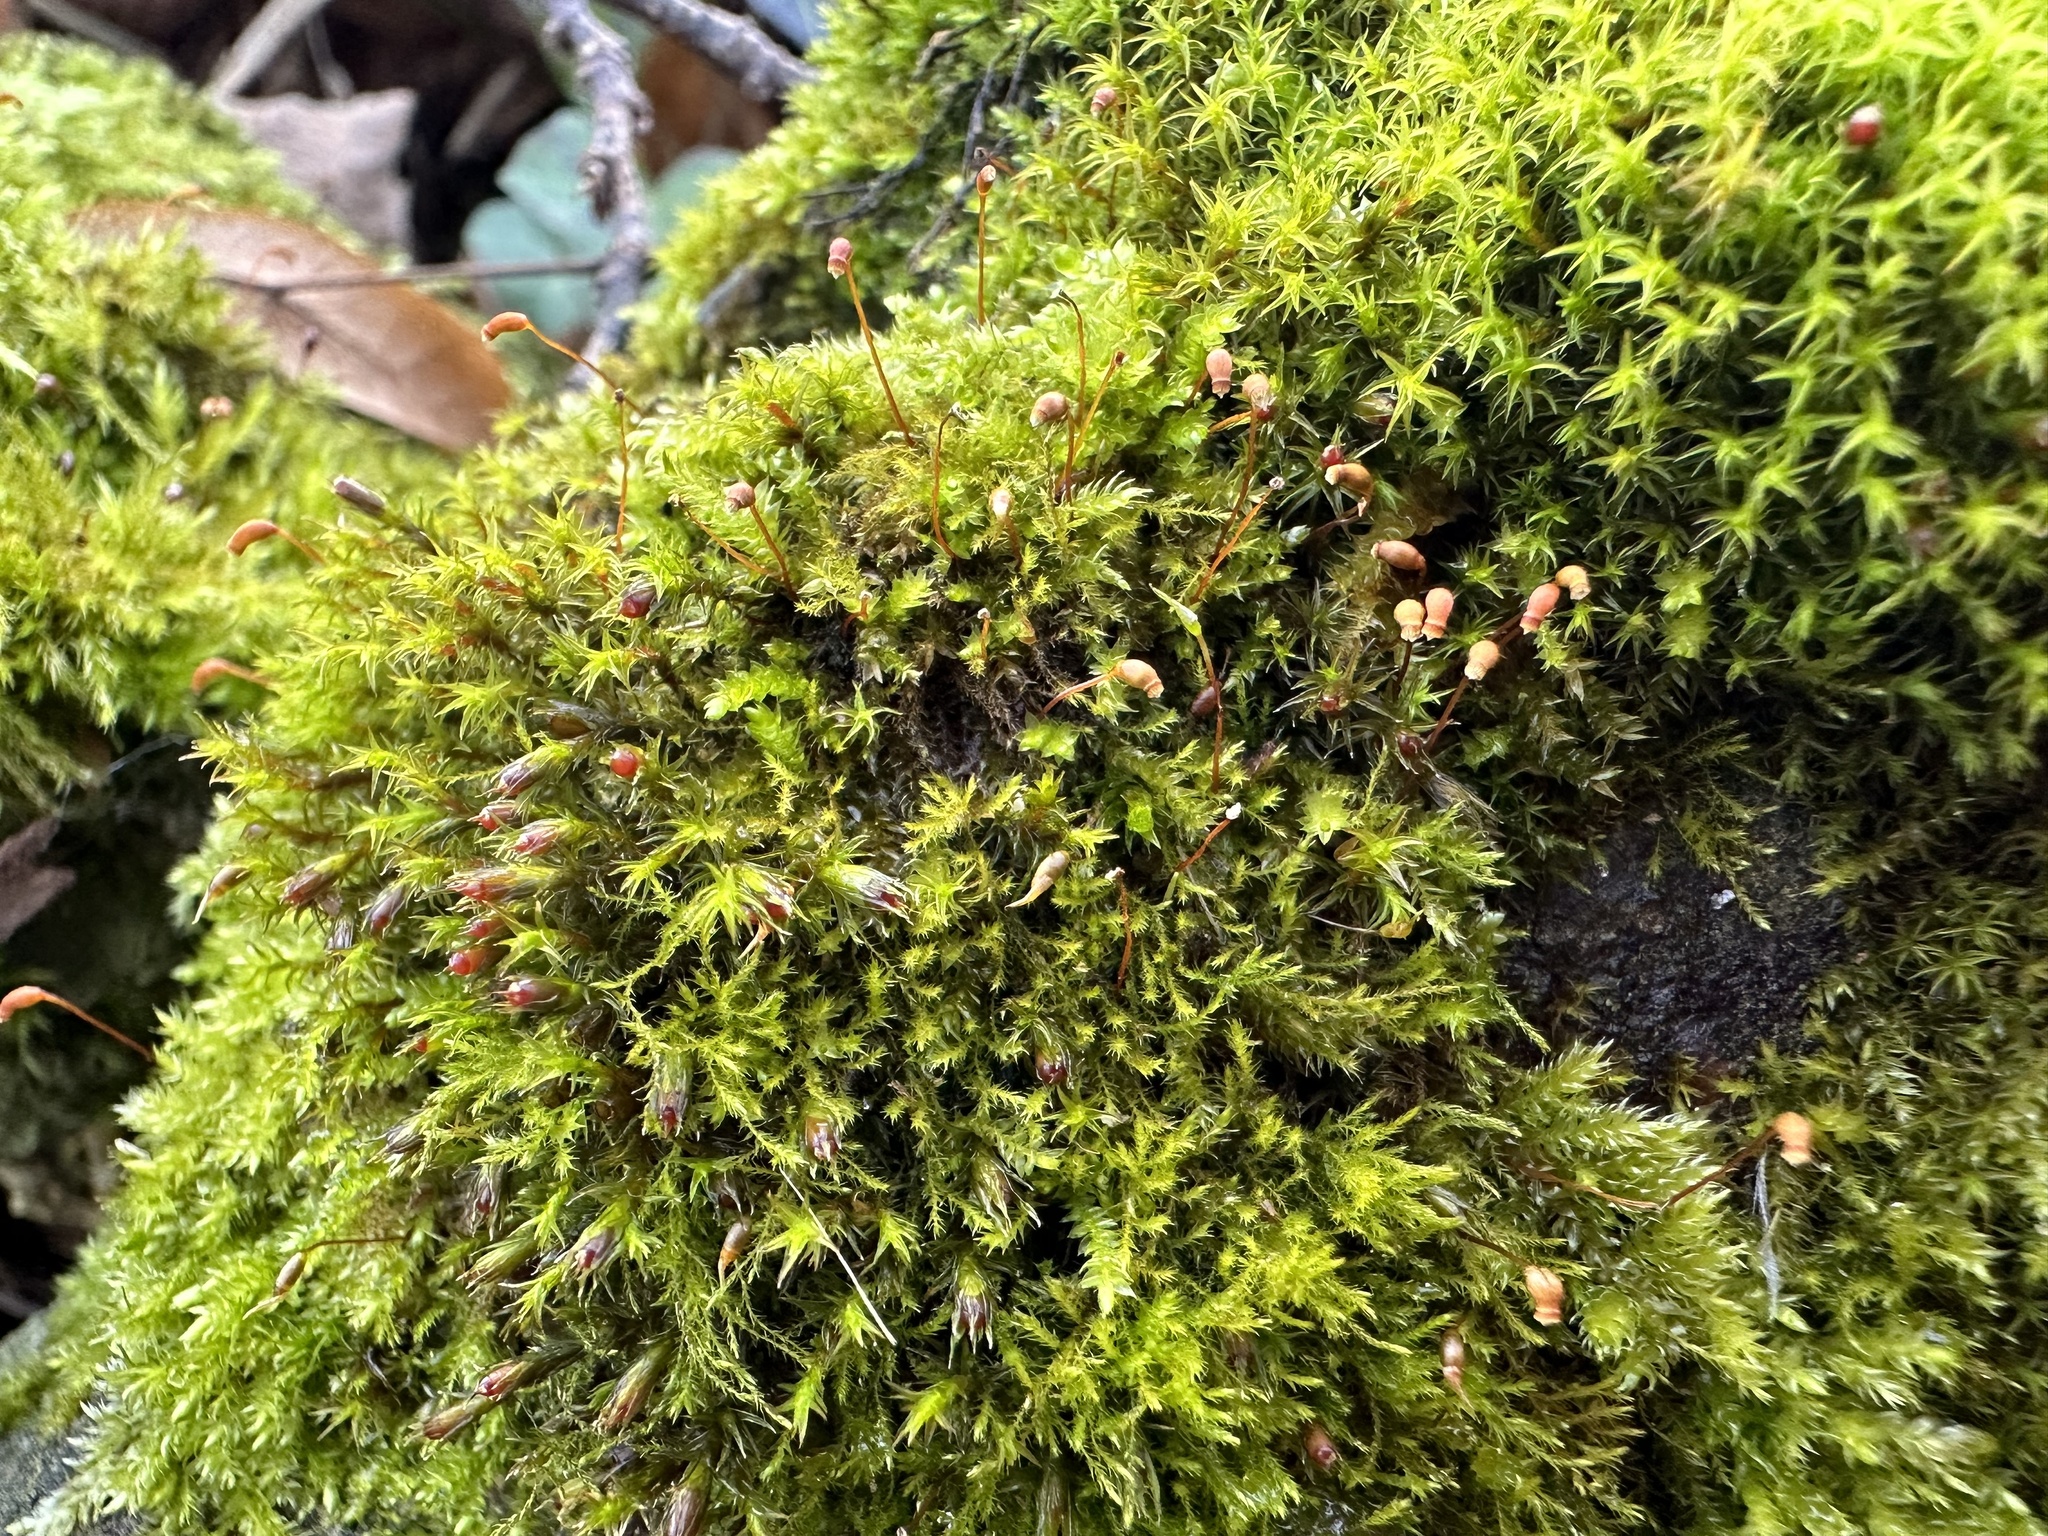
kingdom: Plantae
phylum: Bryophyta
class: Bryopsida
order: Grimmiales
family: Grimmiaceae
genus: Schistidium
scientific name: Schistidium crassipilum
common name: Thickpoint bloom moss
